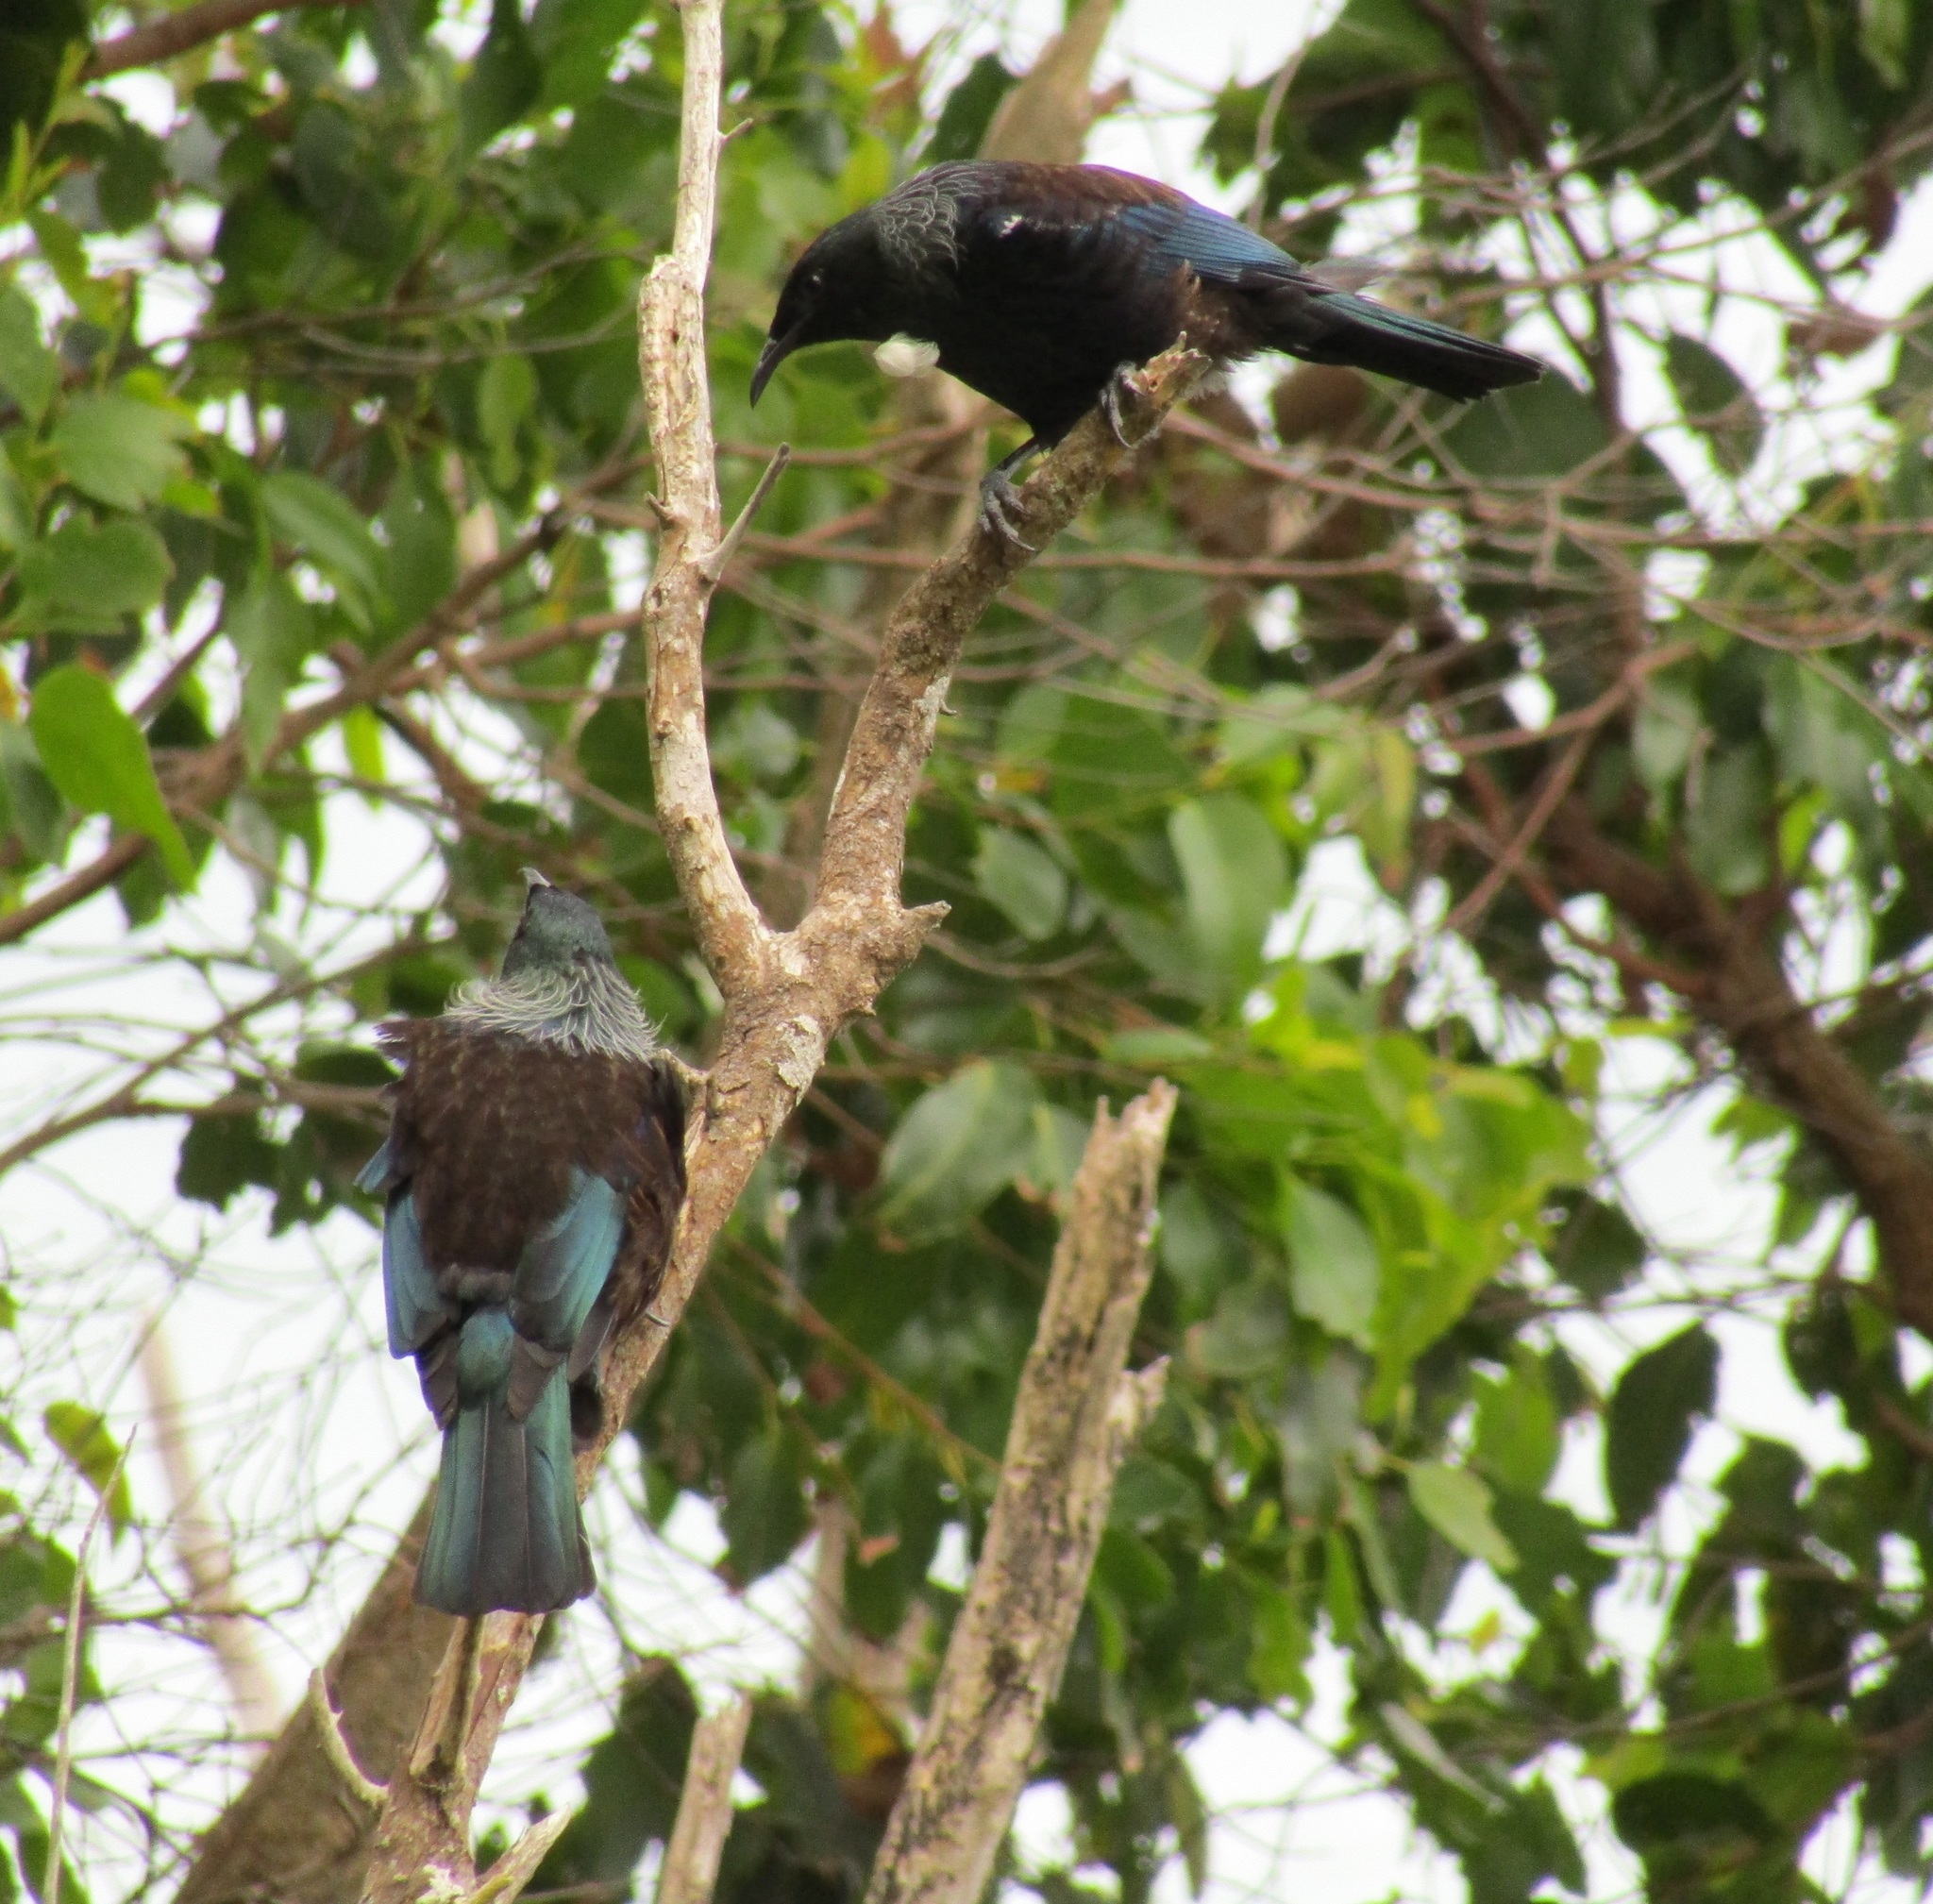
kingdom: Animalia
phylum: Chordata
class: Aves
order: Passeriformes
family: Meliphagidae
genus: Prosthemadera
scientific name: Prosthemadera novaeseelandiae
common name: Tui
